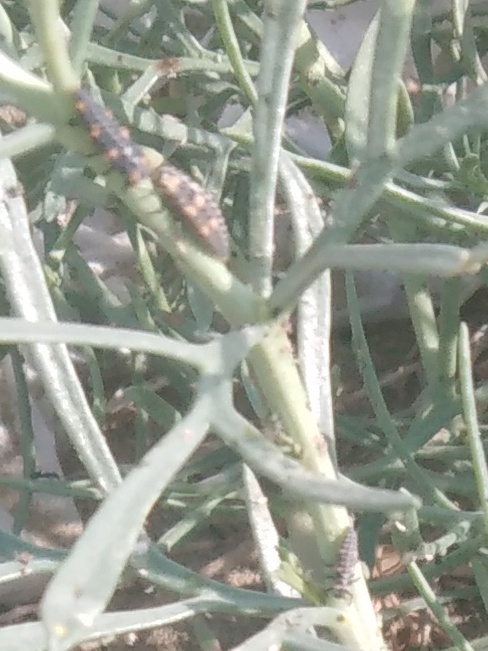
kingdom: Animalia
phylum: Arthropoda
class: Insecta
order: Coleoptera
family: Coccinellidae
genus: Coccinella
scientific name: Coccinella undecimpunctata
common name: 11-spot ladybird
